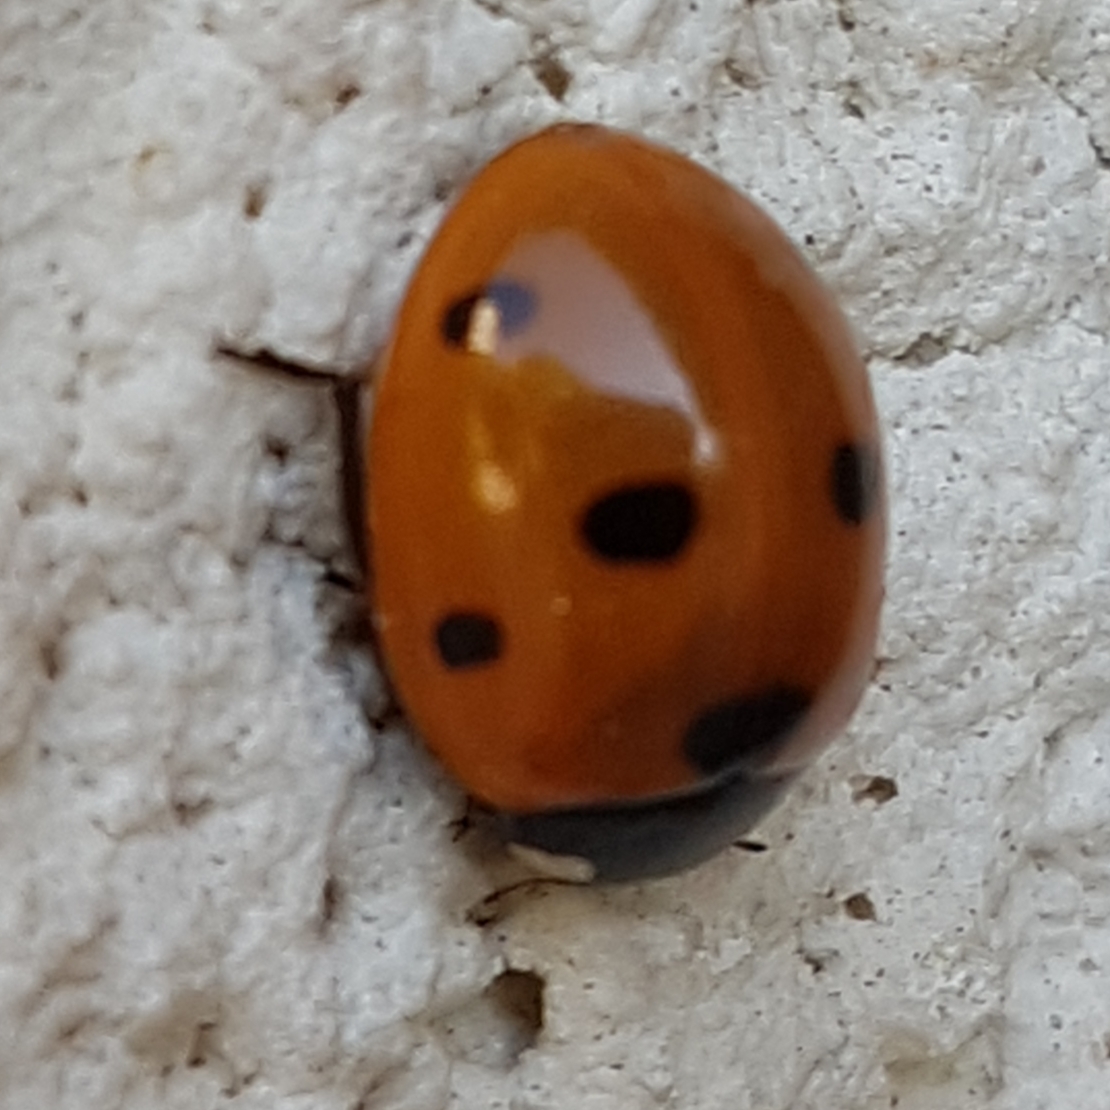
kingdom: Animalia
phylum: Arthropoda
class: Insecta
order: Coleoptera
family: Coccinellidae
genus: Coccinella
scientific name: Coccinella septempunctata
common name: Sevenspotted lady beetle
